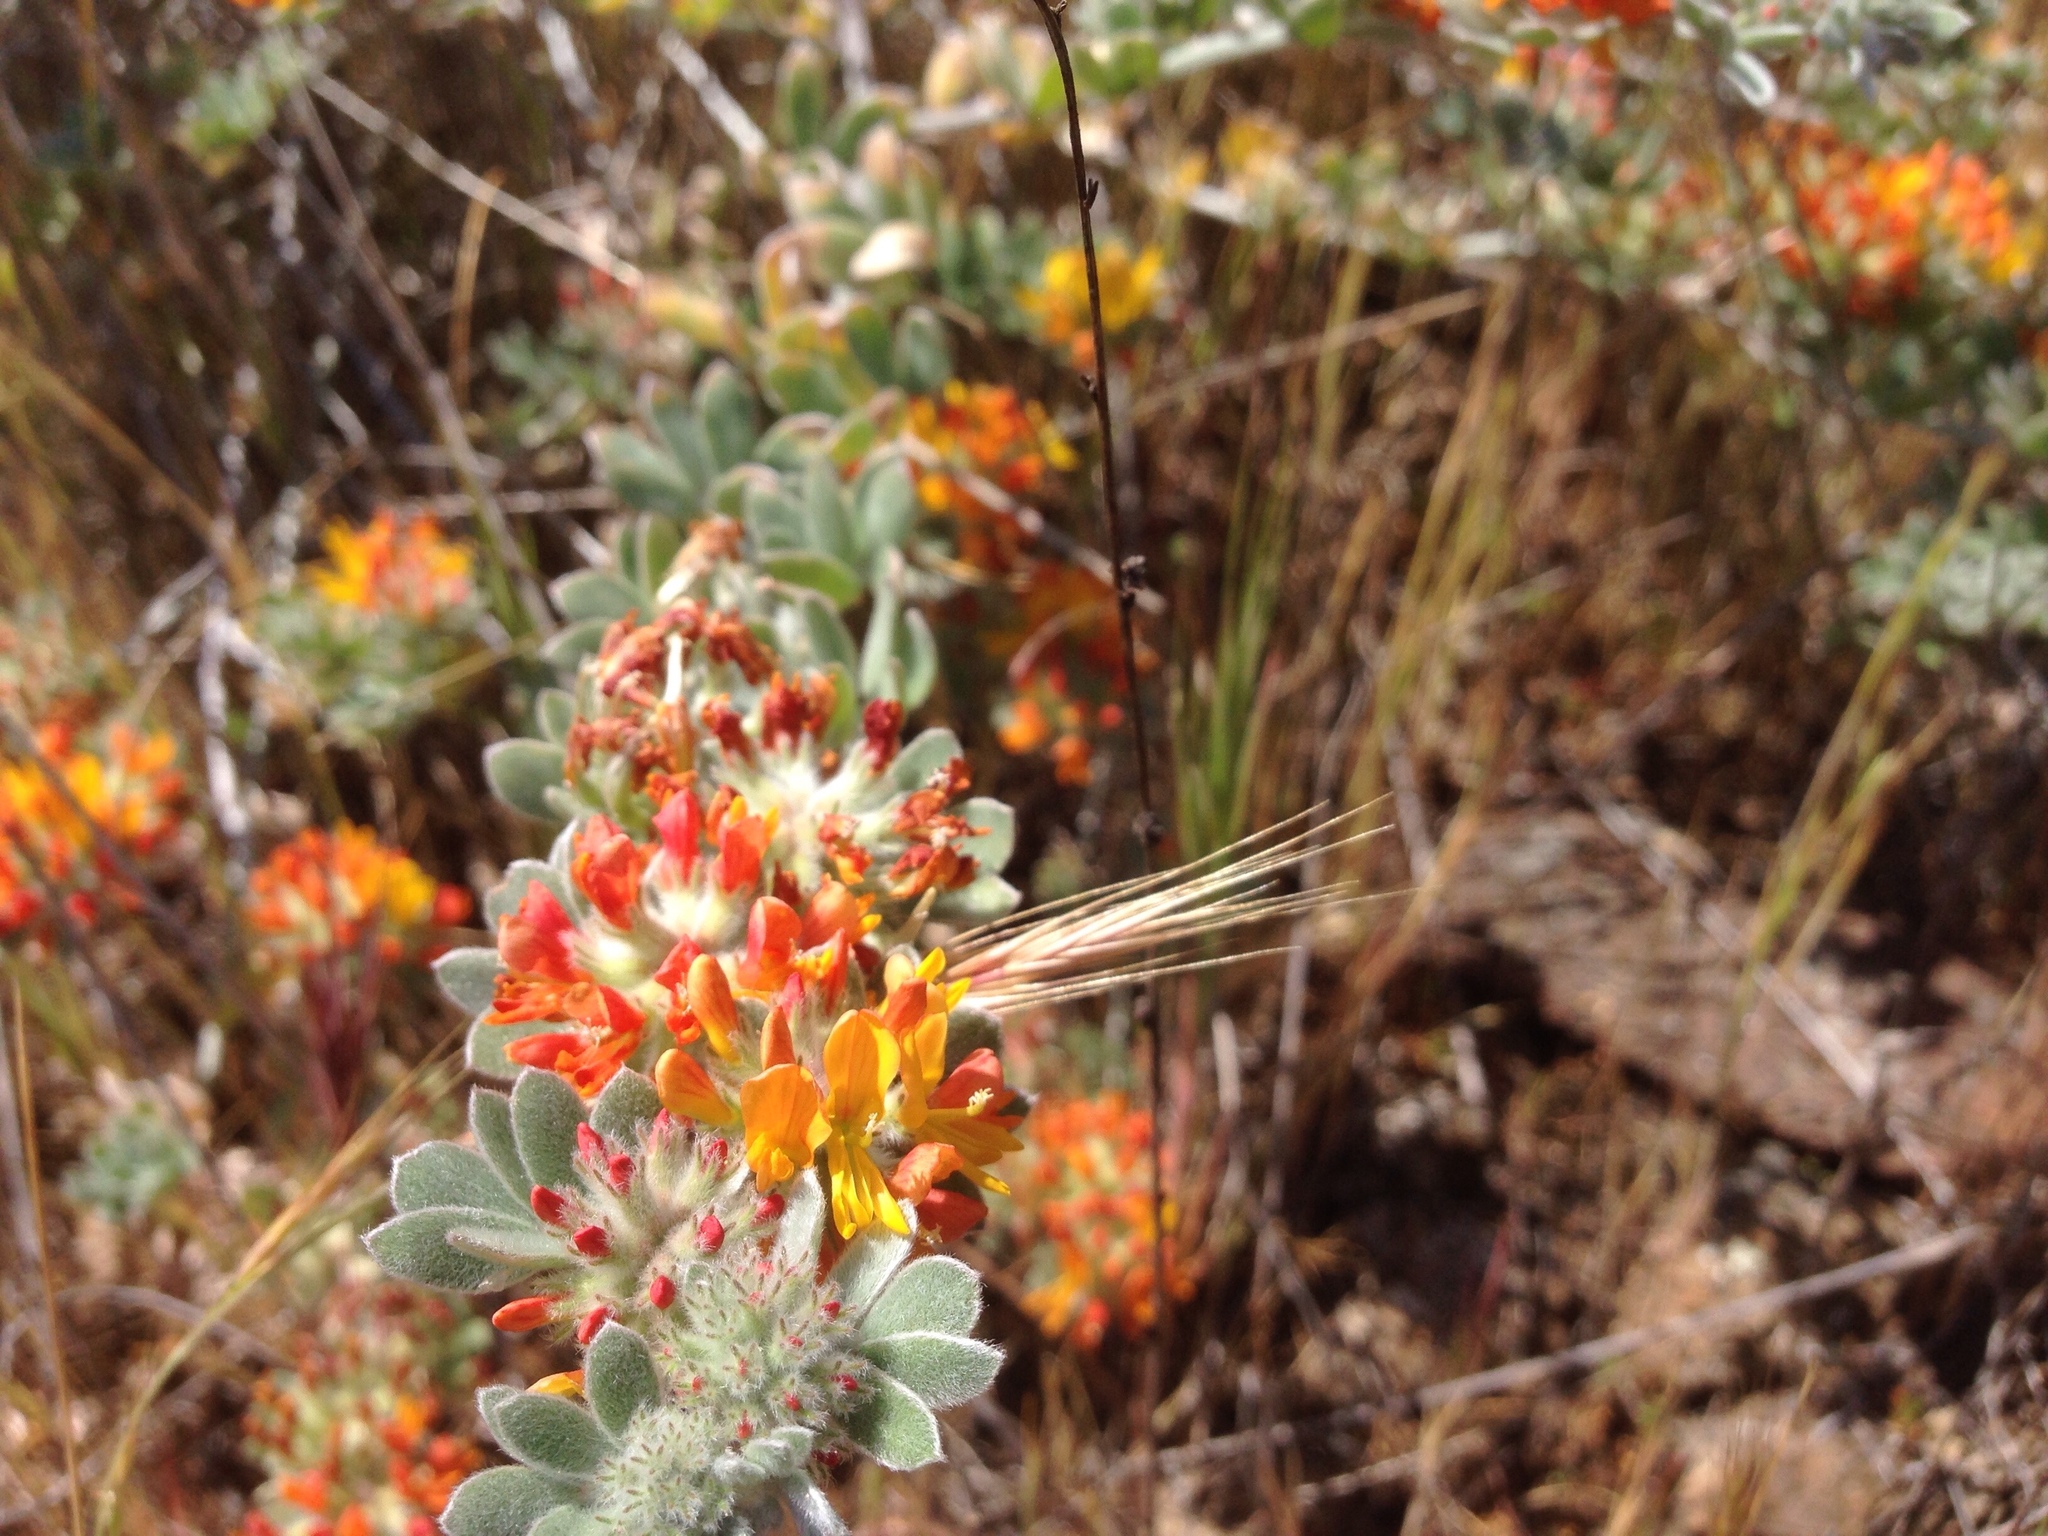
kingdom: Plantae
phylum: Tracheophyta
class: Magnoliopsida
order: Fabales
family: Fabaceae
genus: Acmispon
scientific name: Acmispon argophyllus
